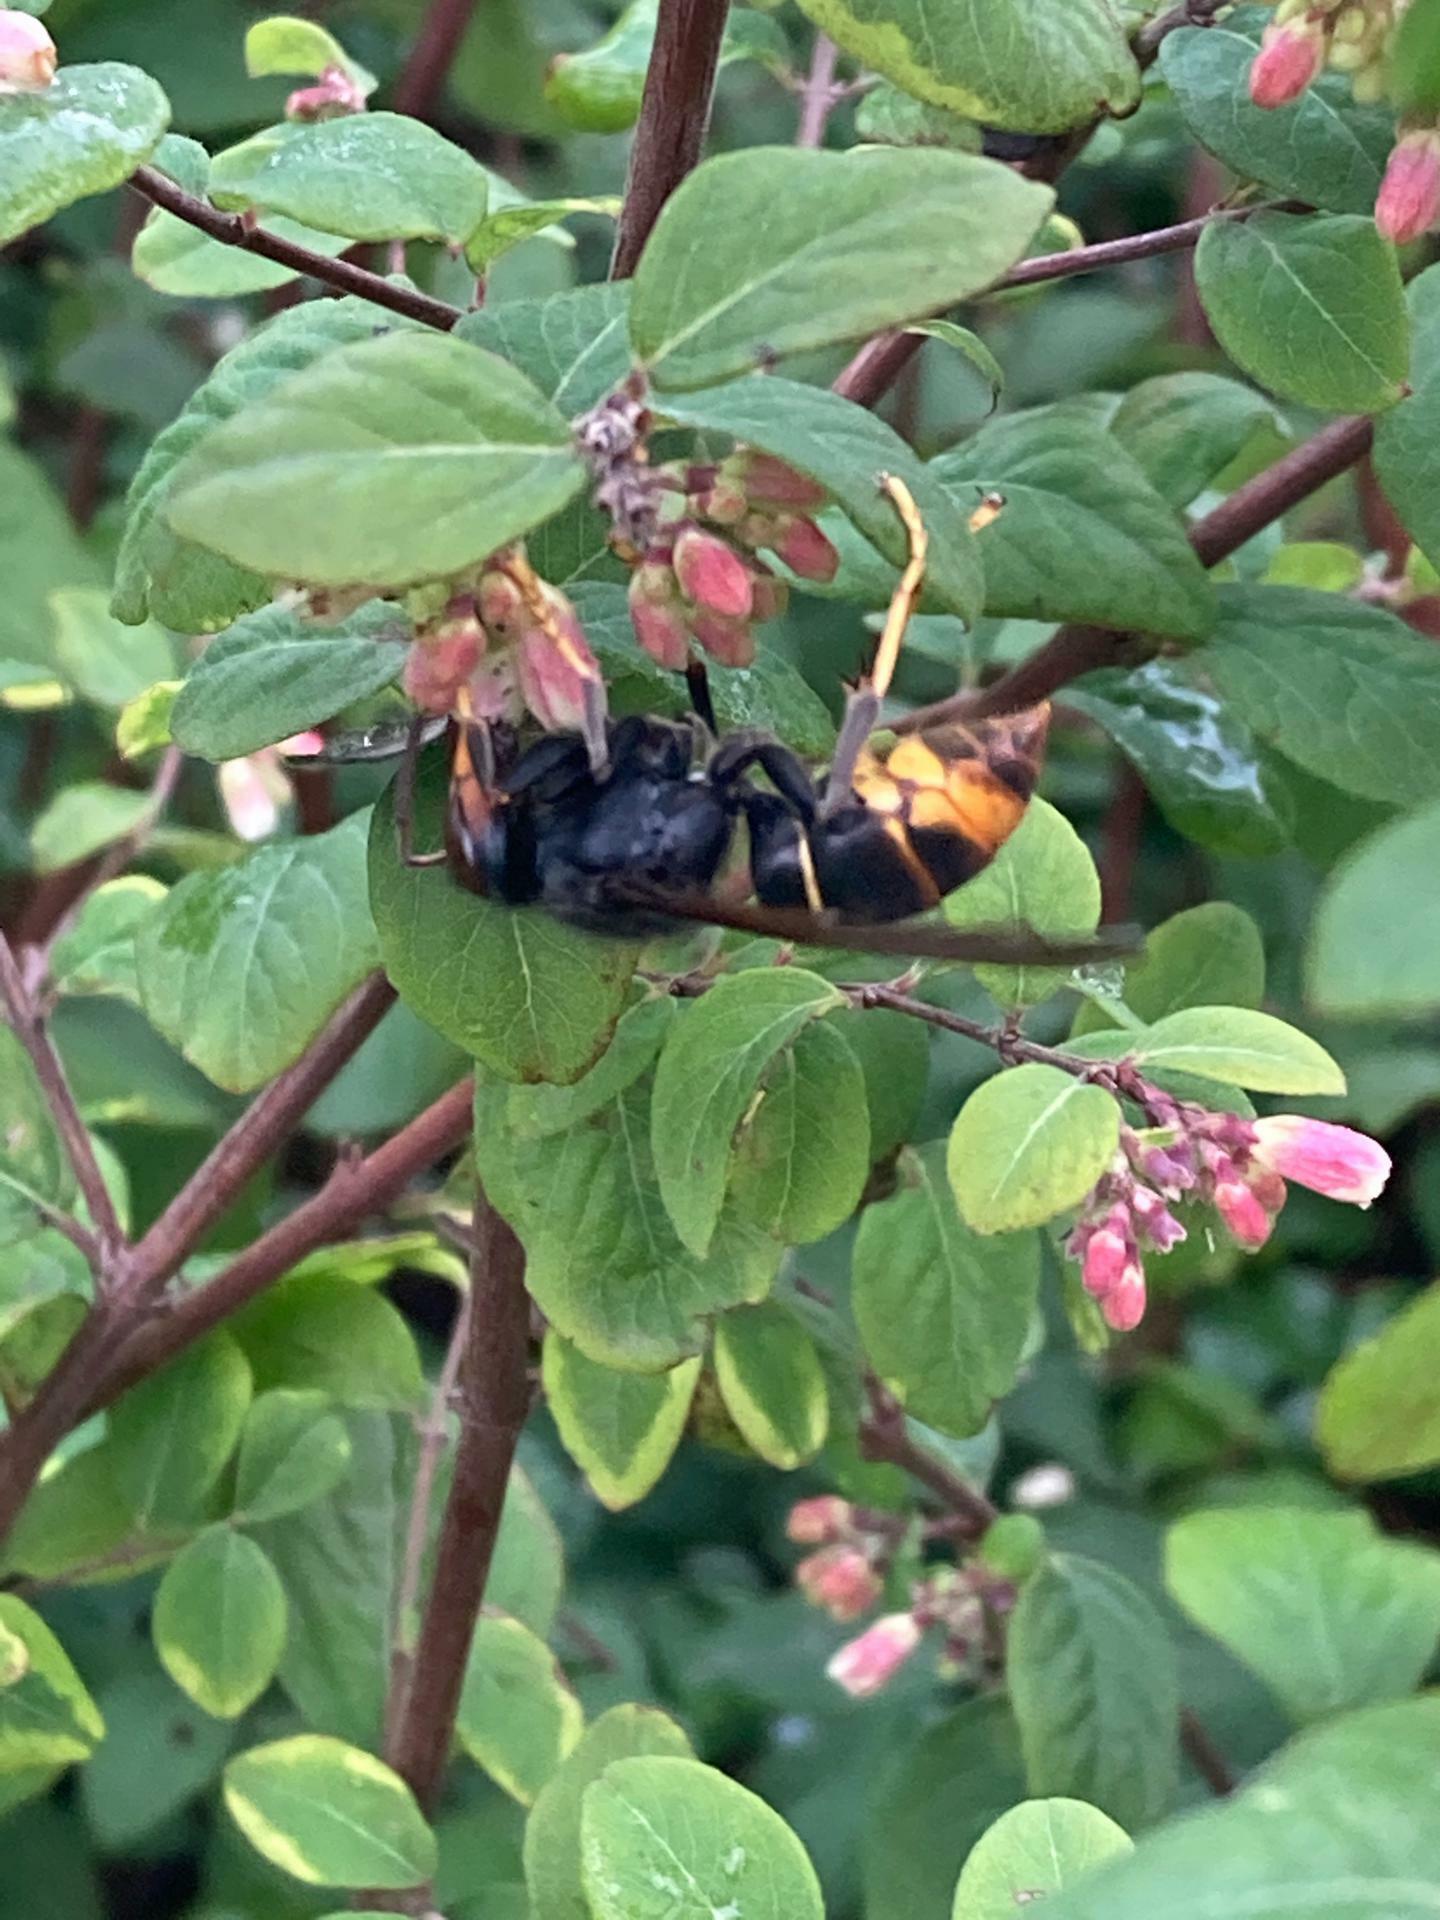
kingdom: Animalia
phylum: Arthropoda
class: Insecta
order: Hymenoptera
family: Vespidae
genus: Vespa
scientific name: Vespa velutina
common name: Asian hornet
